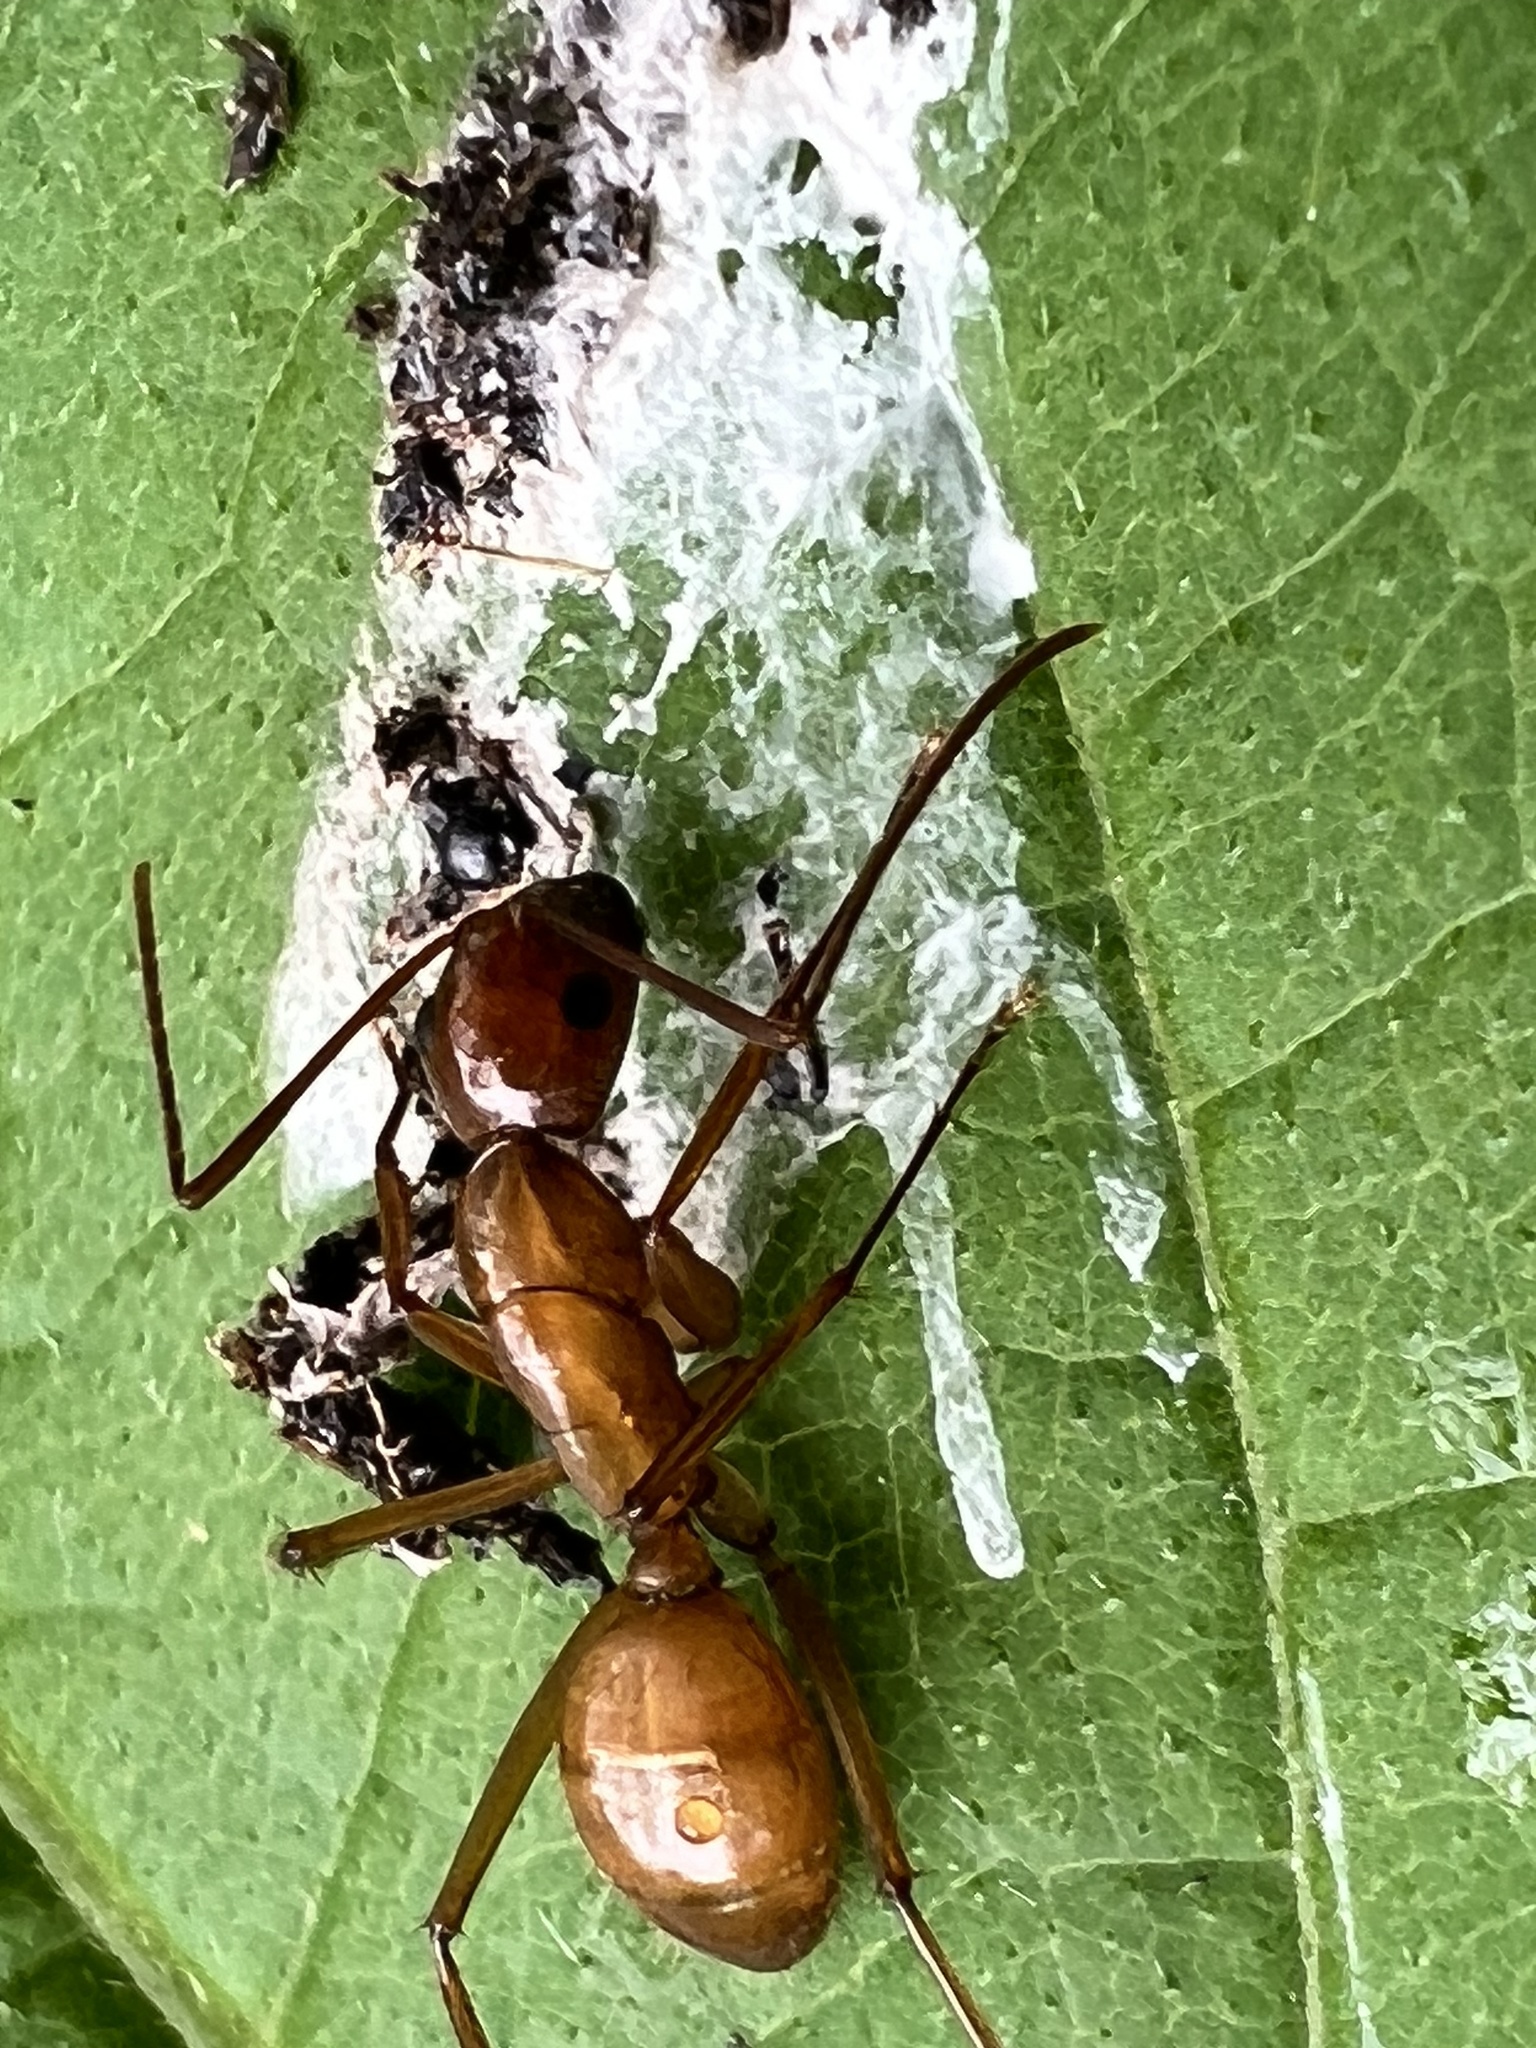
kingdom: Animalia
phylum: Arthropoda
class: Insecta
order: Hymenoptera
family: Formicidae
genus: Camponotus
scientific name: Camponotus castaneus
